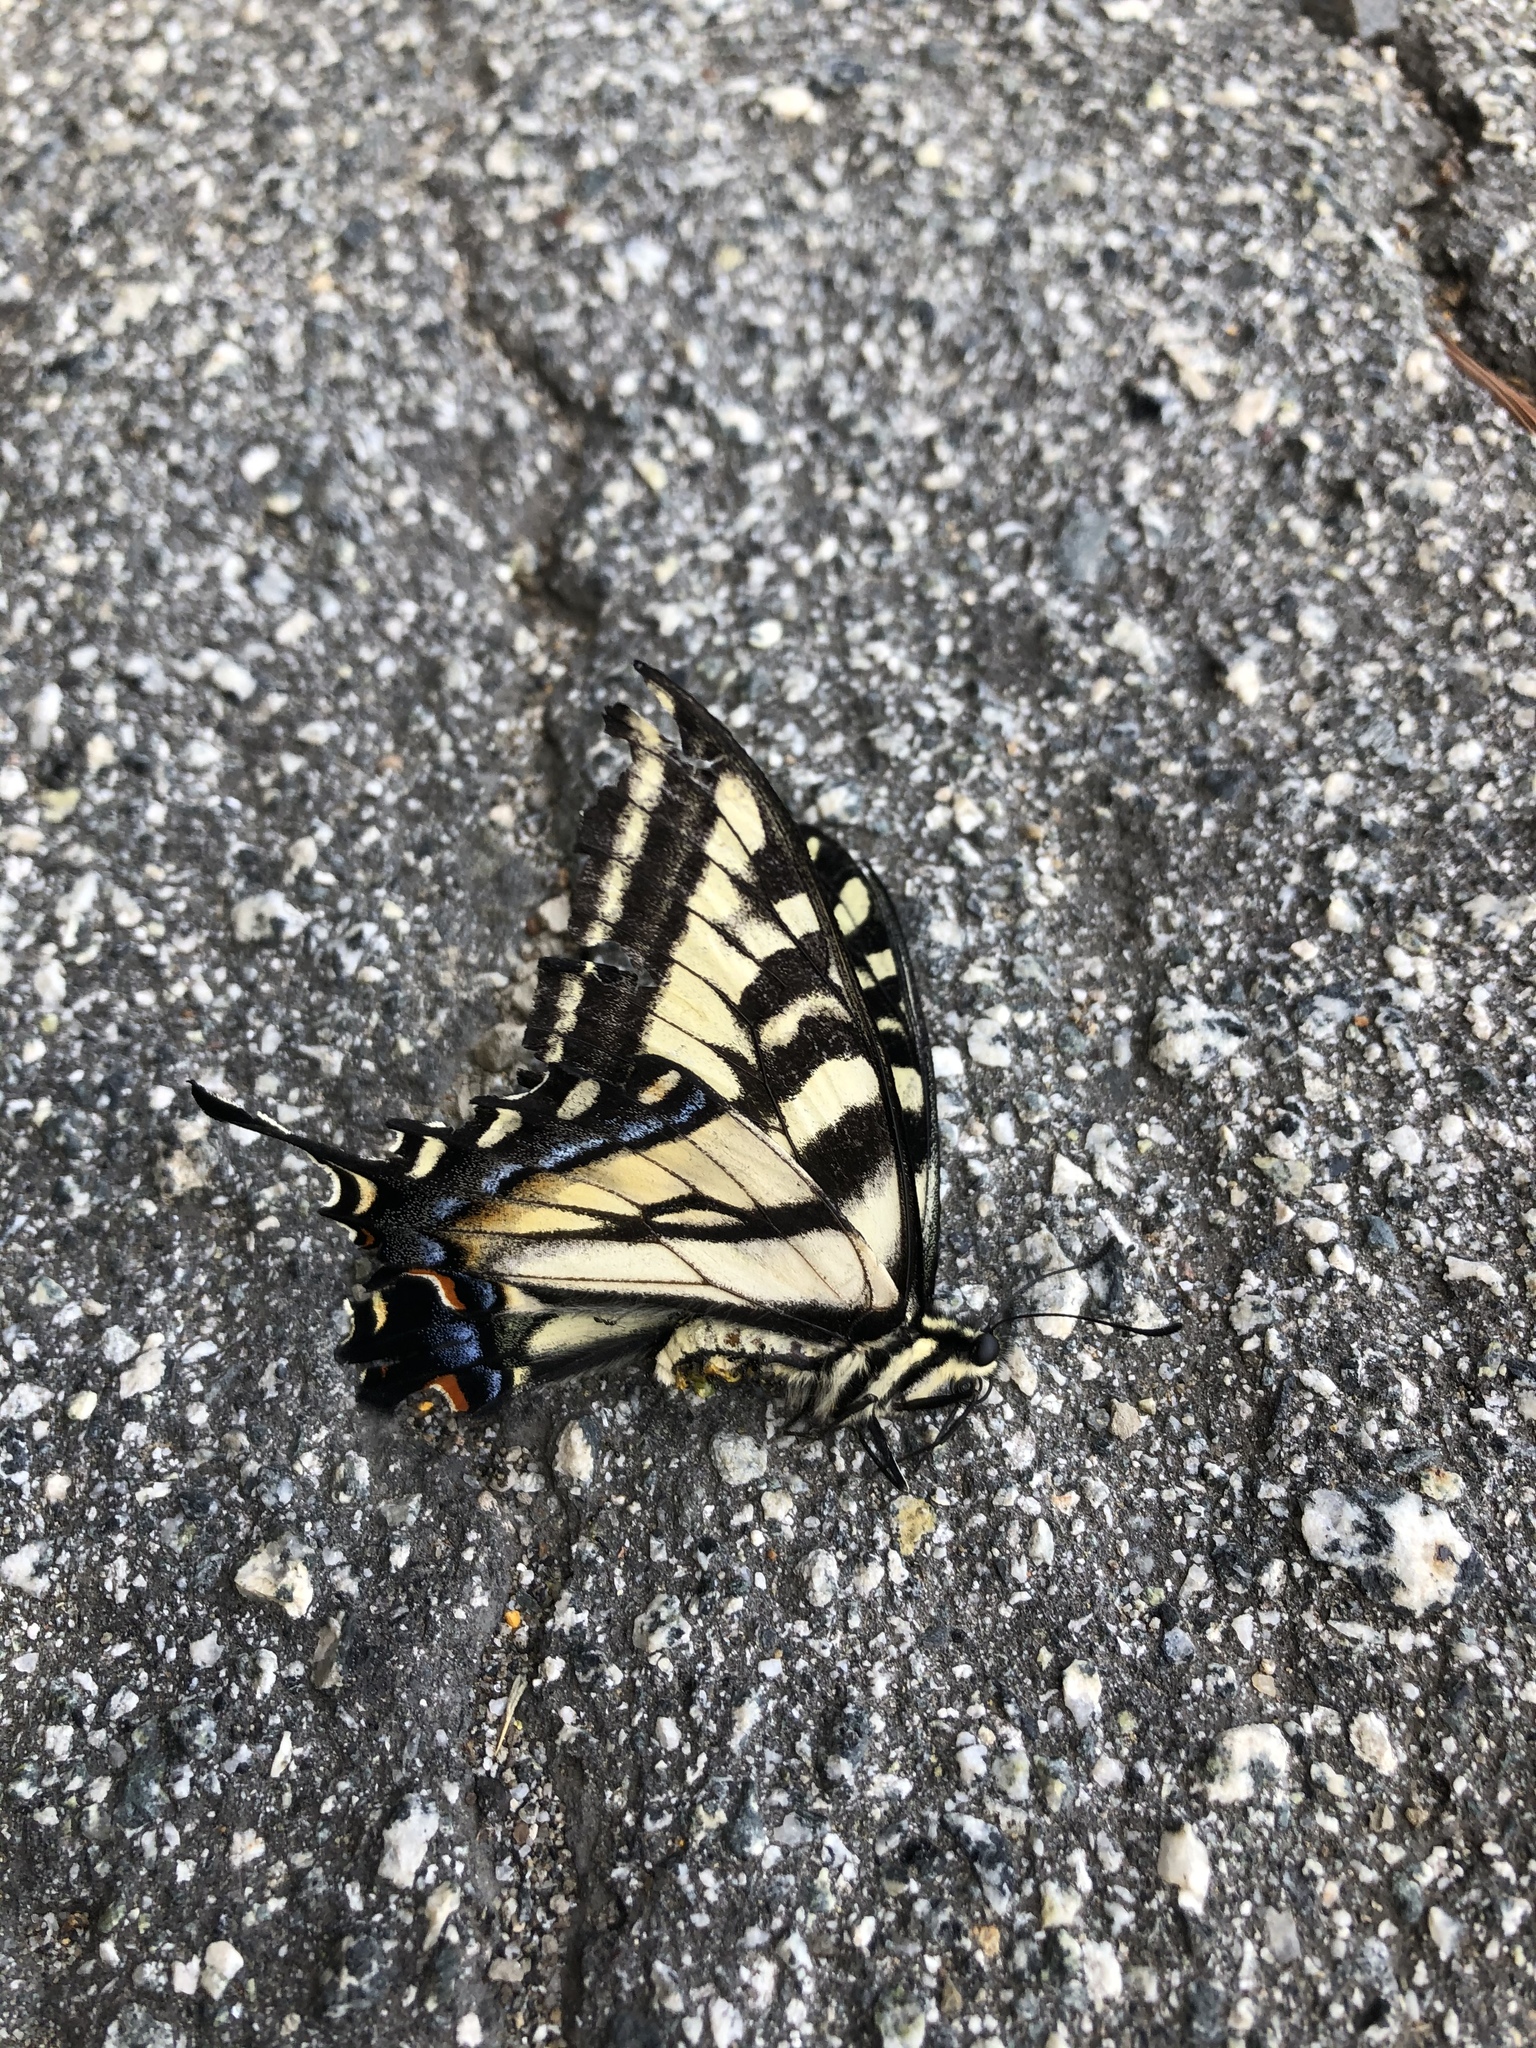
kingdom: Animalia
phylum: Arthropoda
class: Insecta
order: Lepidoptera
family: Papilionidae
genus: Papilio
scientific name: Papilio rutulus
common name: Western tiger swallowtail
